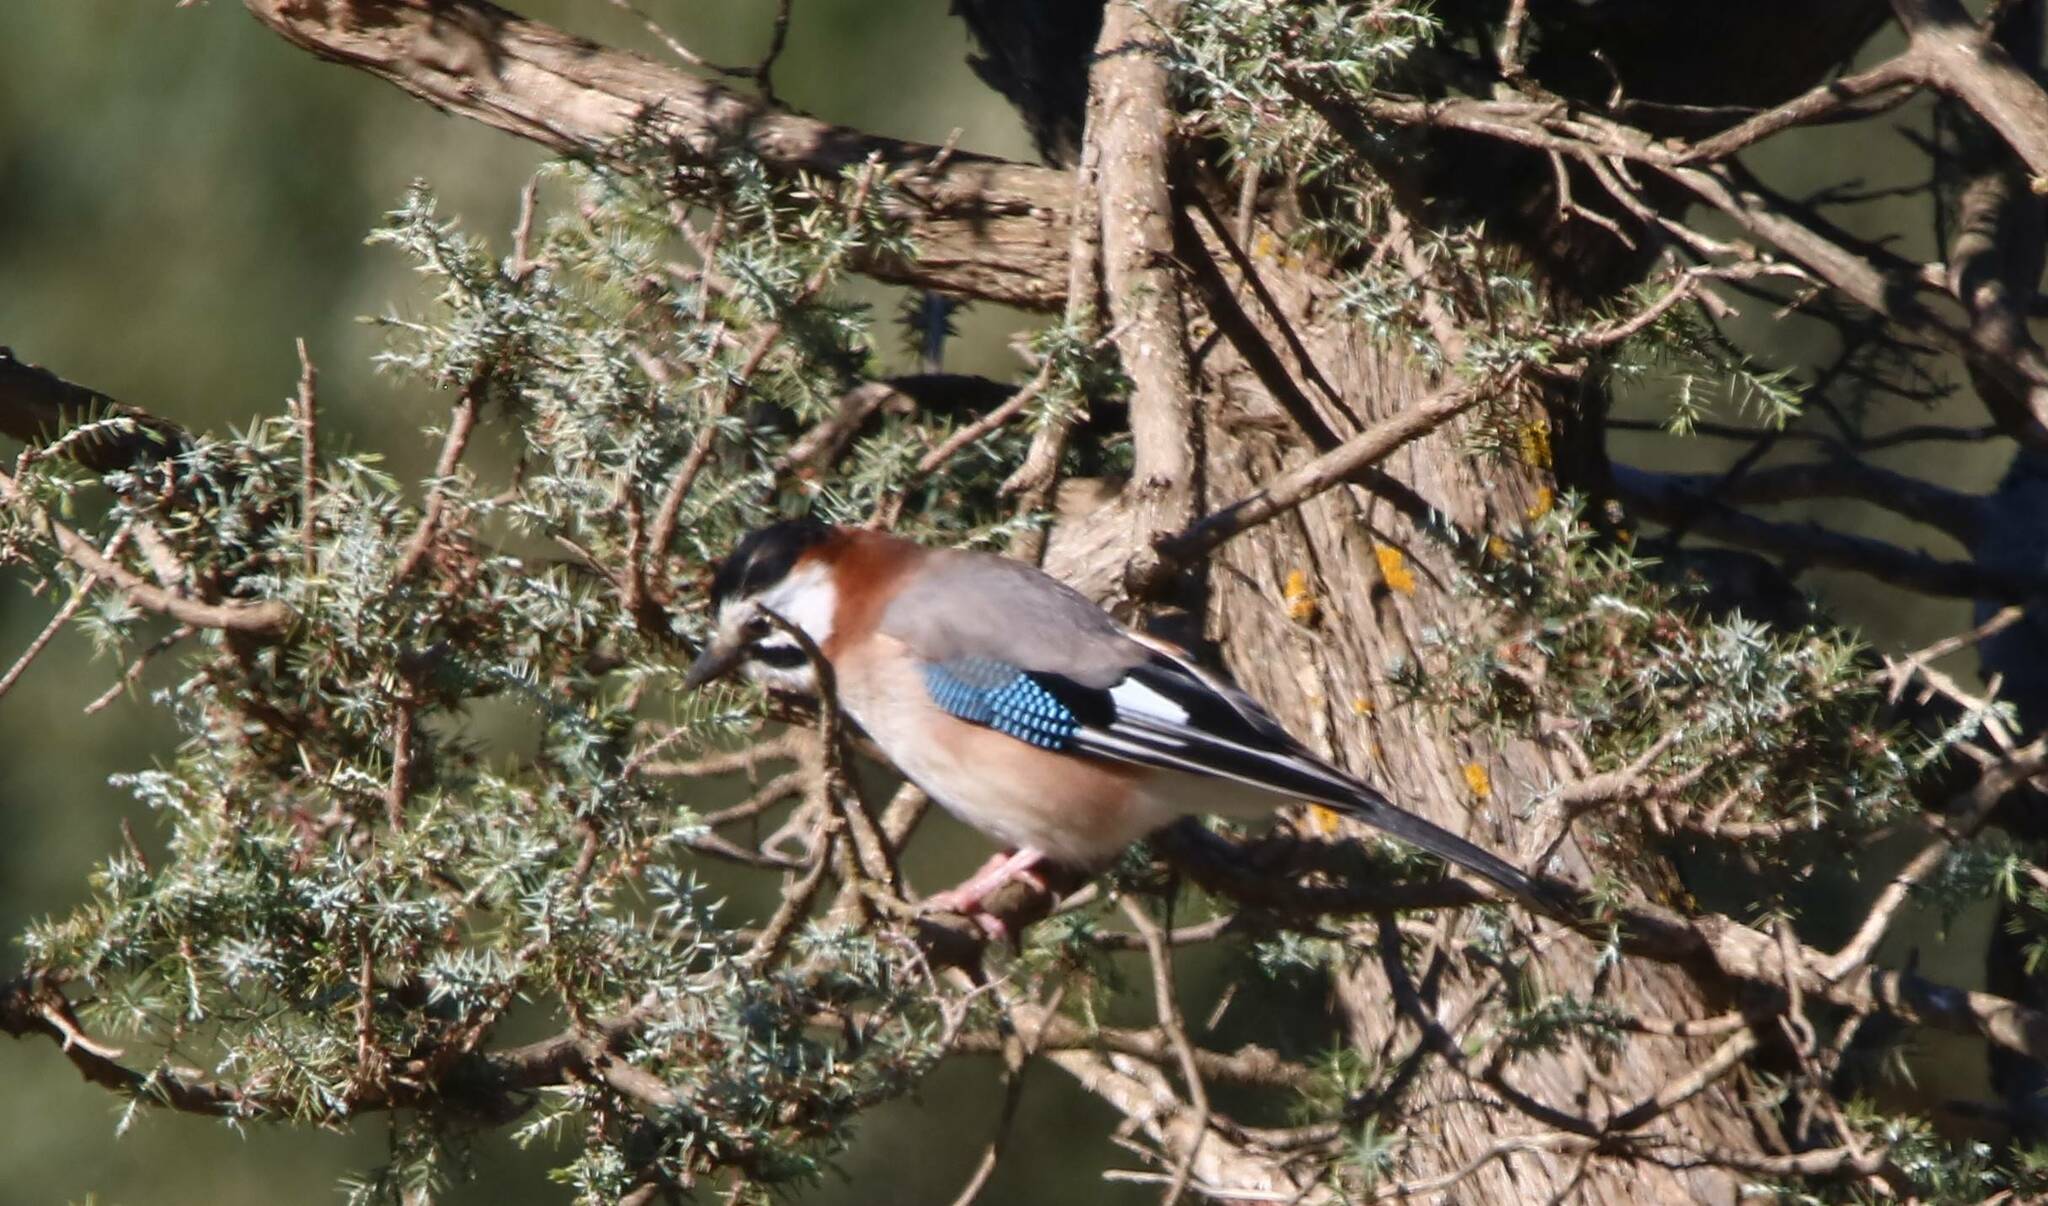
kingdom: Animalia
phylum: Chordata
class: Aves
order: Passeriformes
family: Corvidae
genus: Garrulus
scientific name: Garrulus glandarius
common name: Eurasian jay
